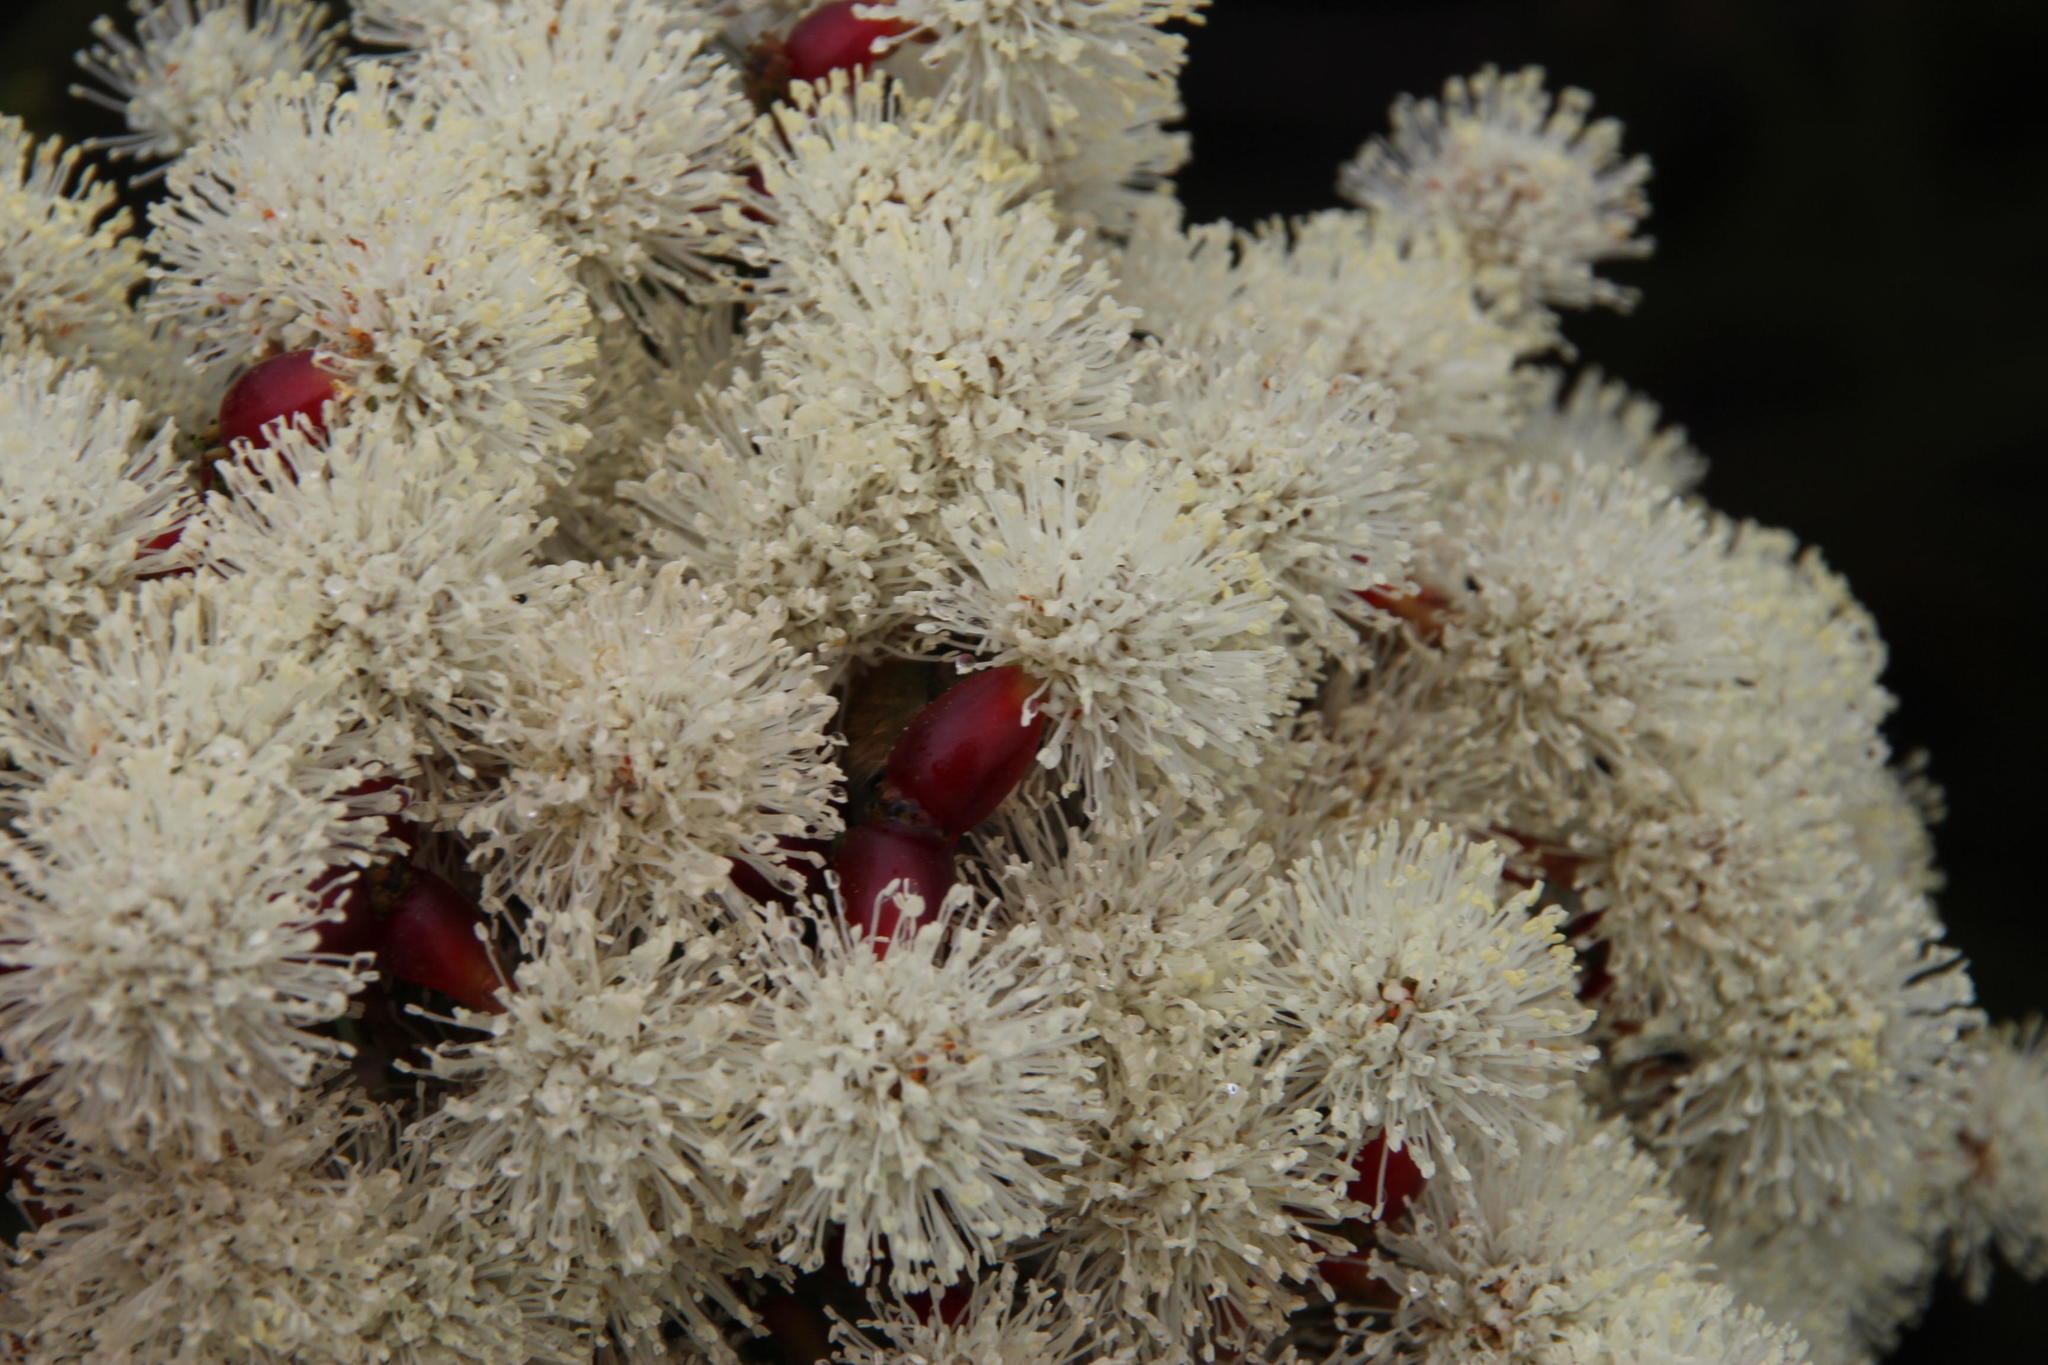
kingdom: Animalia
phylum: Arthropoda
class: Insecta
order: Coleoptera
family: Scarabaeidae
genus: Stegopterus
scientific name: Stegopterus vittatus
